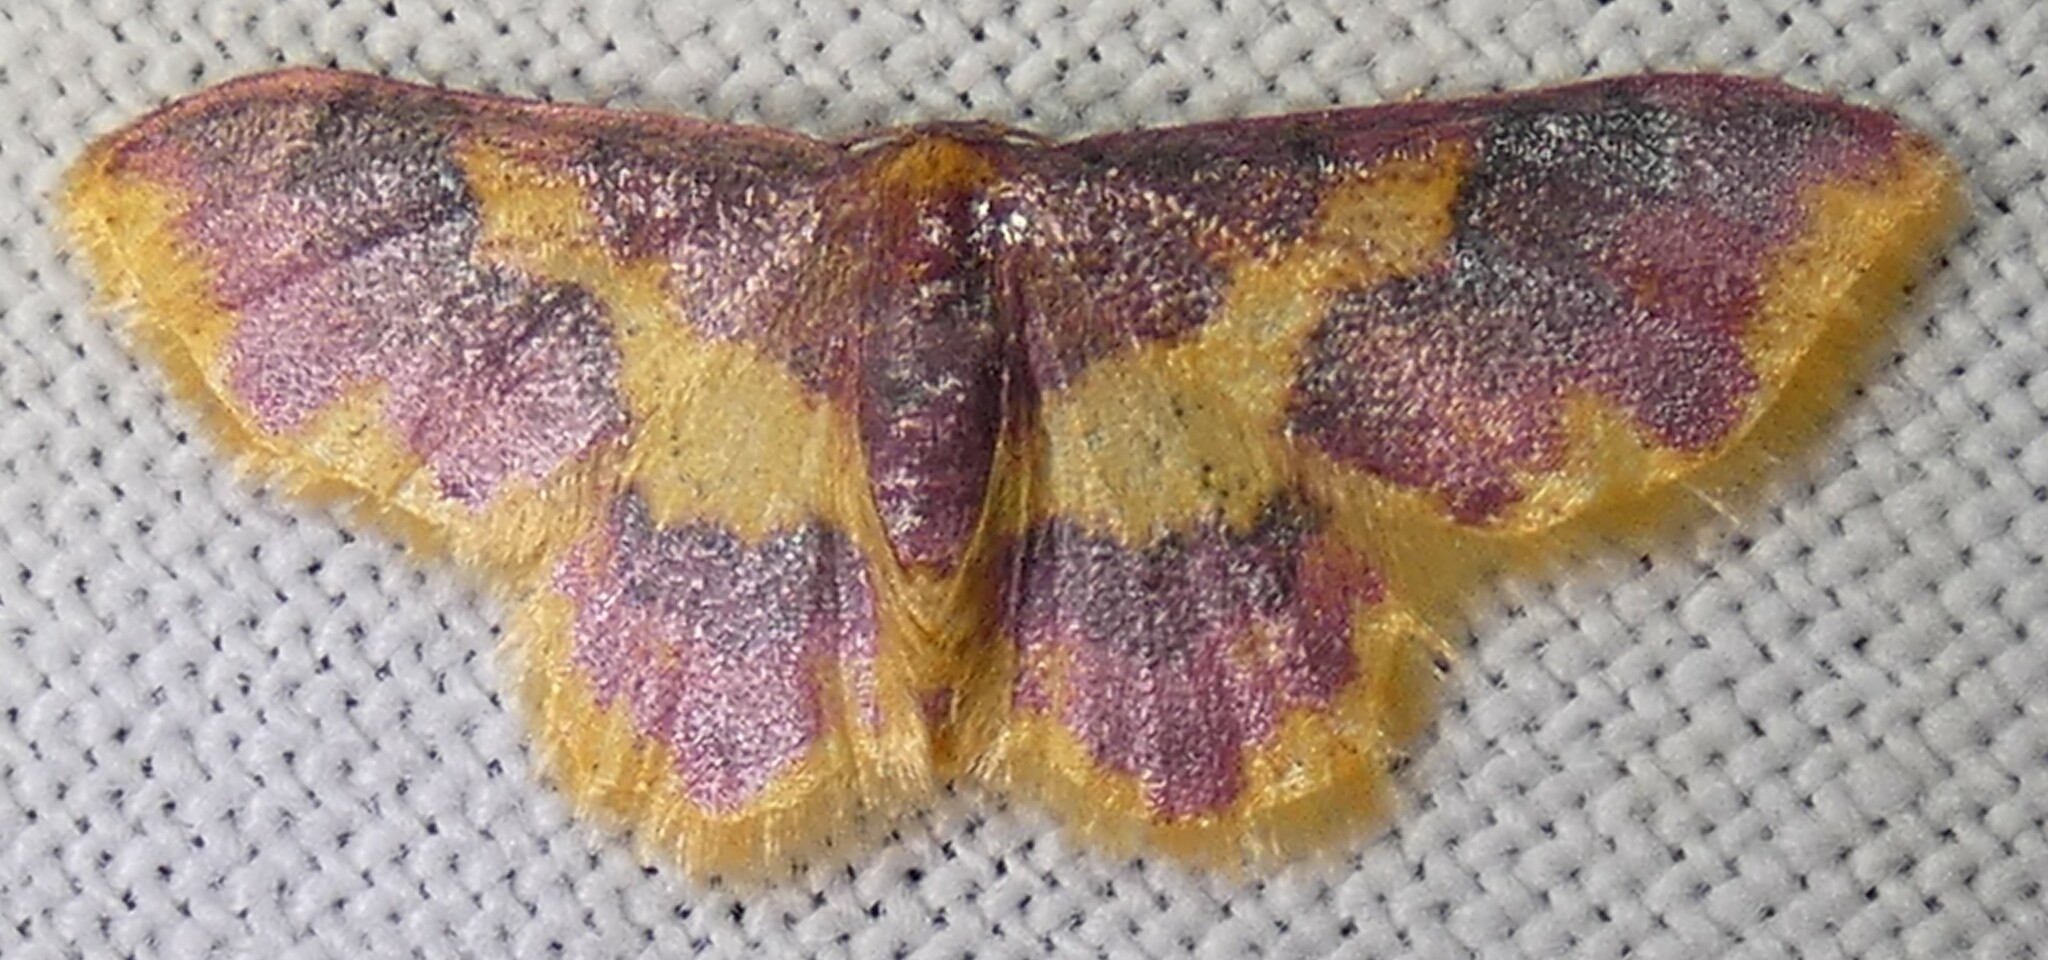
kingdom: Animalia
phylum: Arthropoda
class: Insecta
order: Lepidoptera
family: Geometridae
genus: Lophosis
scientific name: Lophosis labeculata
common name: Stained lophosis moth
